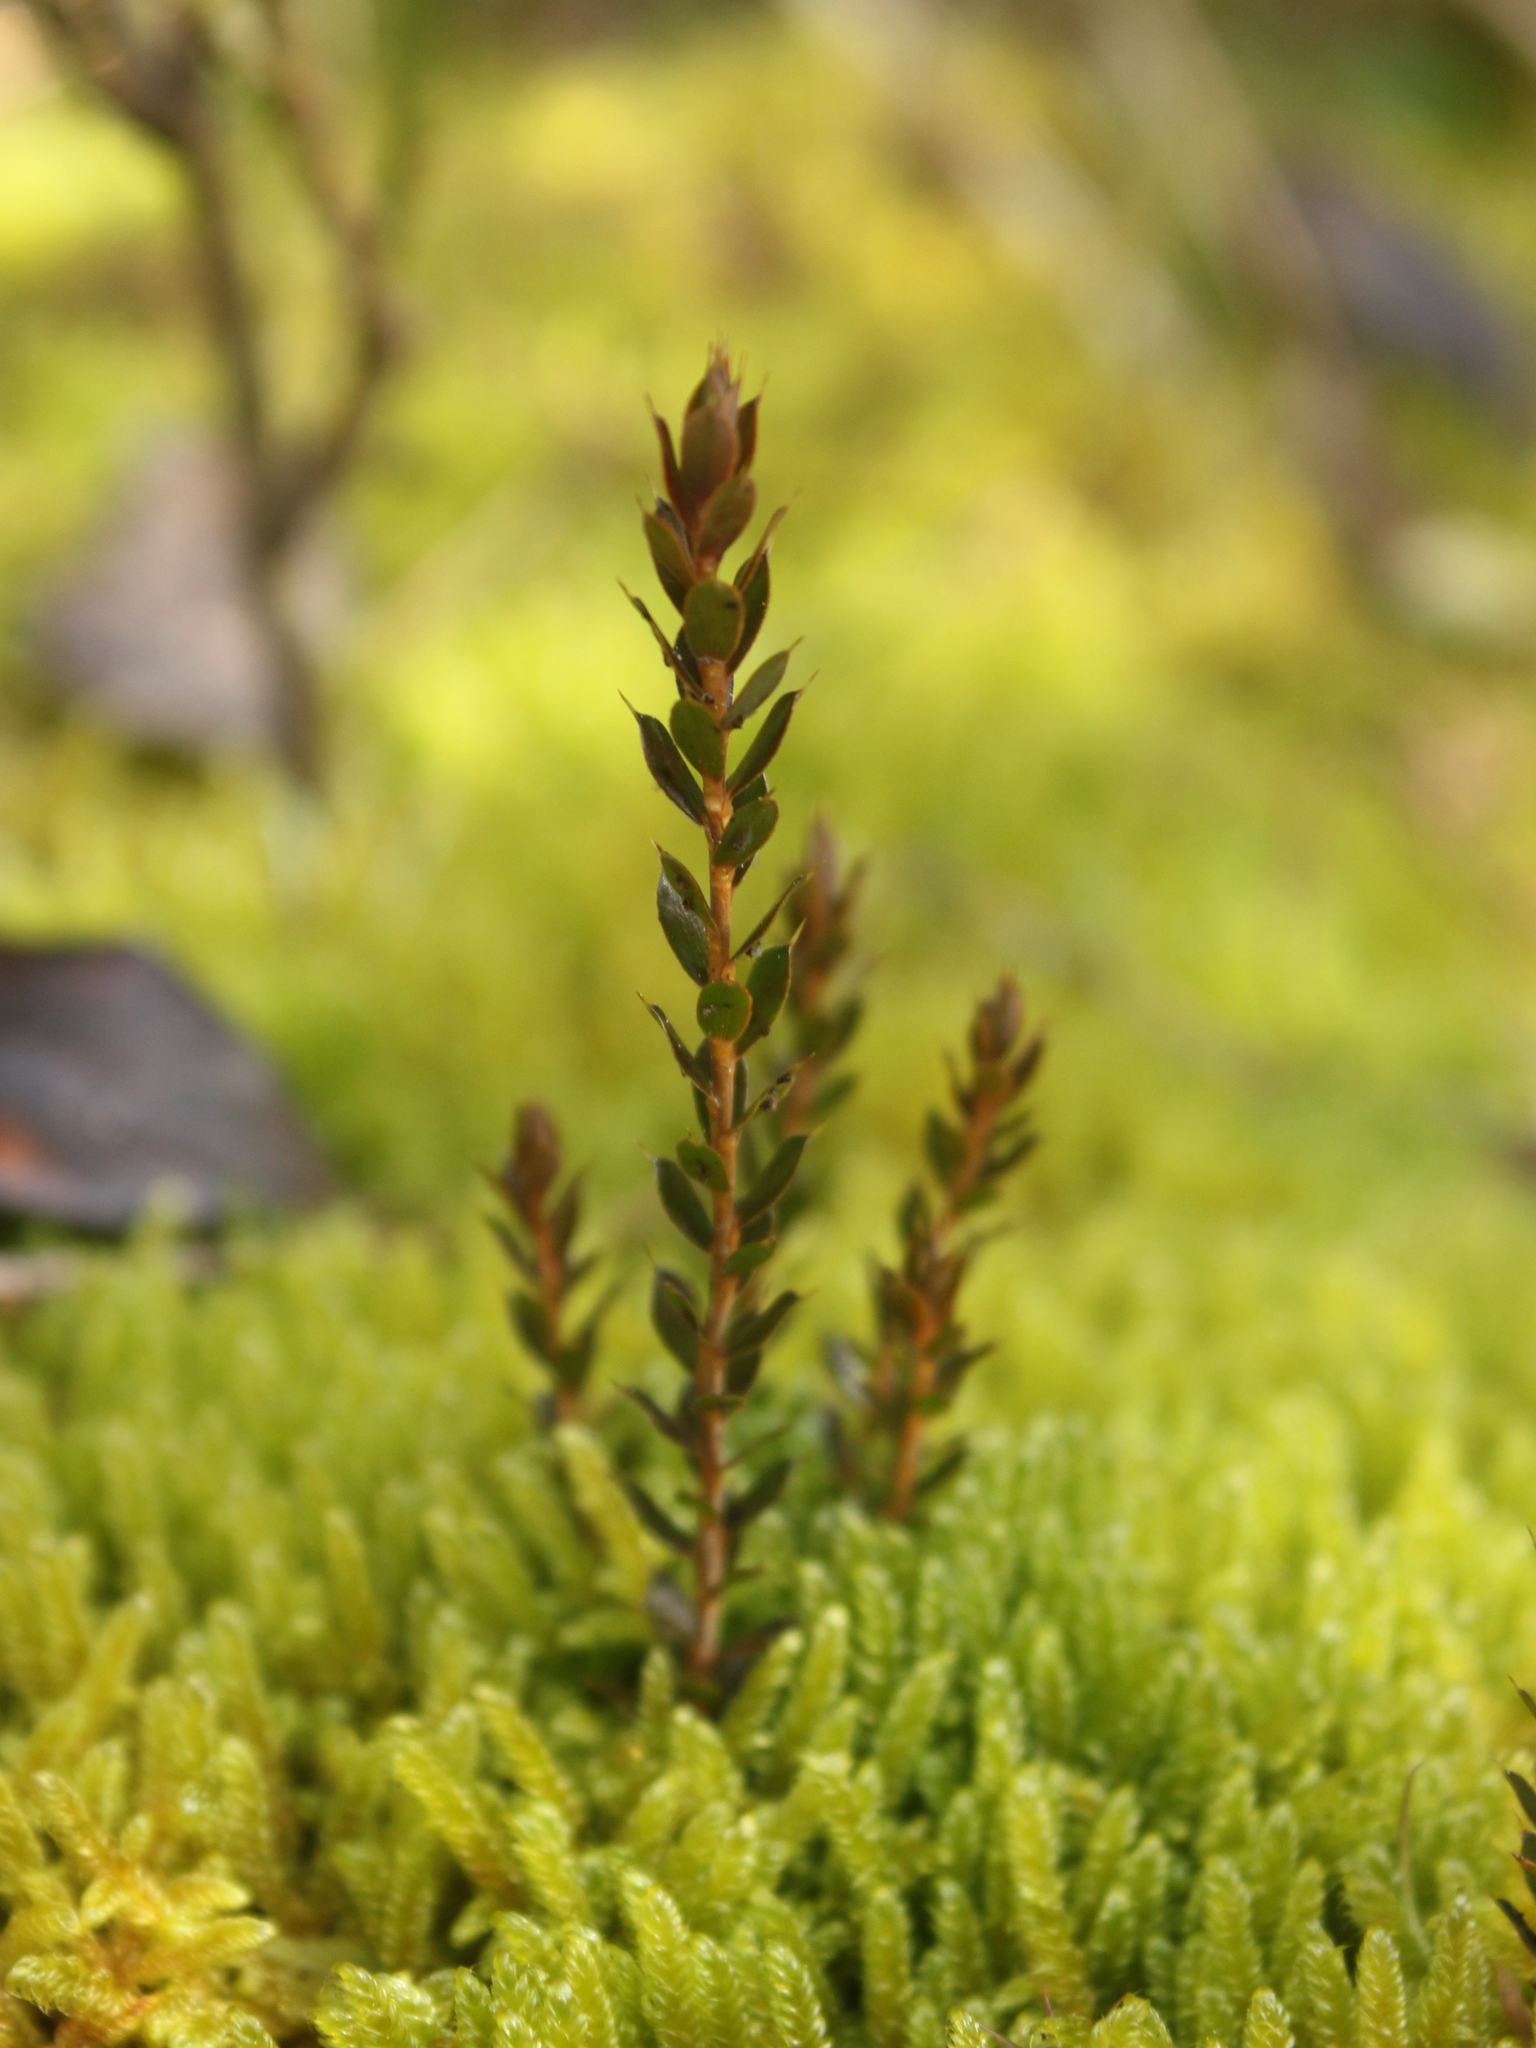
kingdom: Plantae
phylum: Tracheophyta
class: Magnoliopsida
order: Ericales
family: Ericaceae
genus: Styphelia
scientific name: Styphelia nesophila
